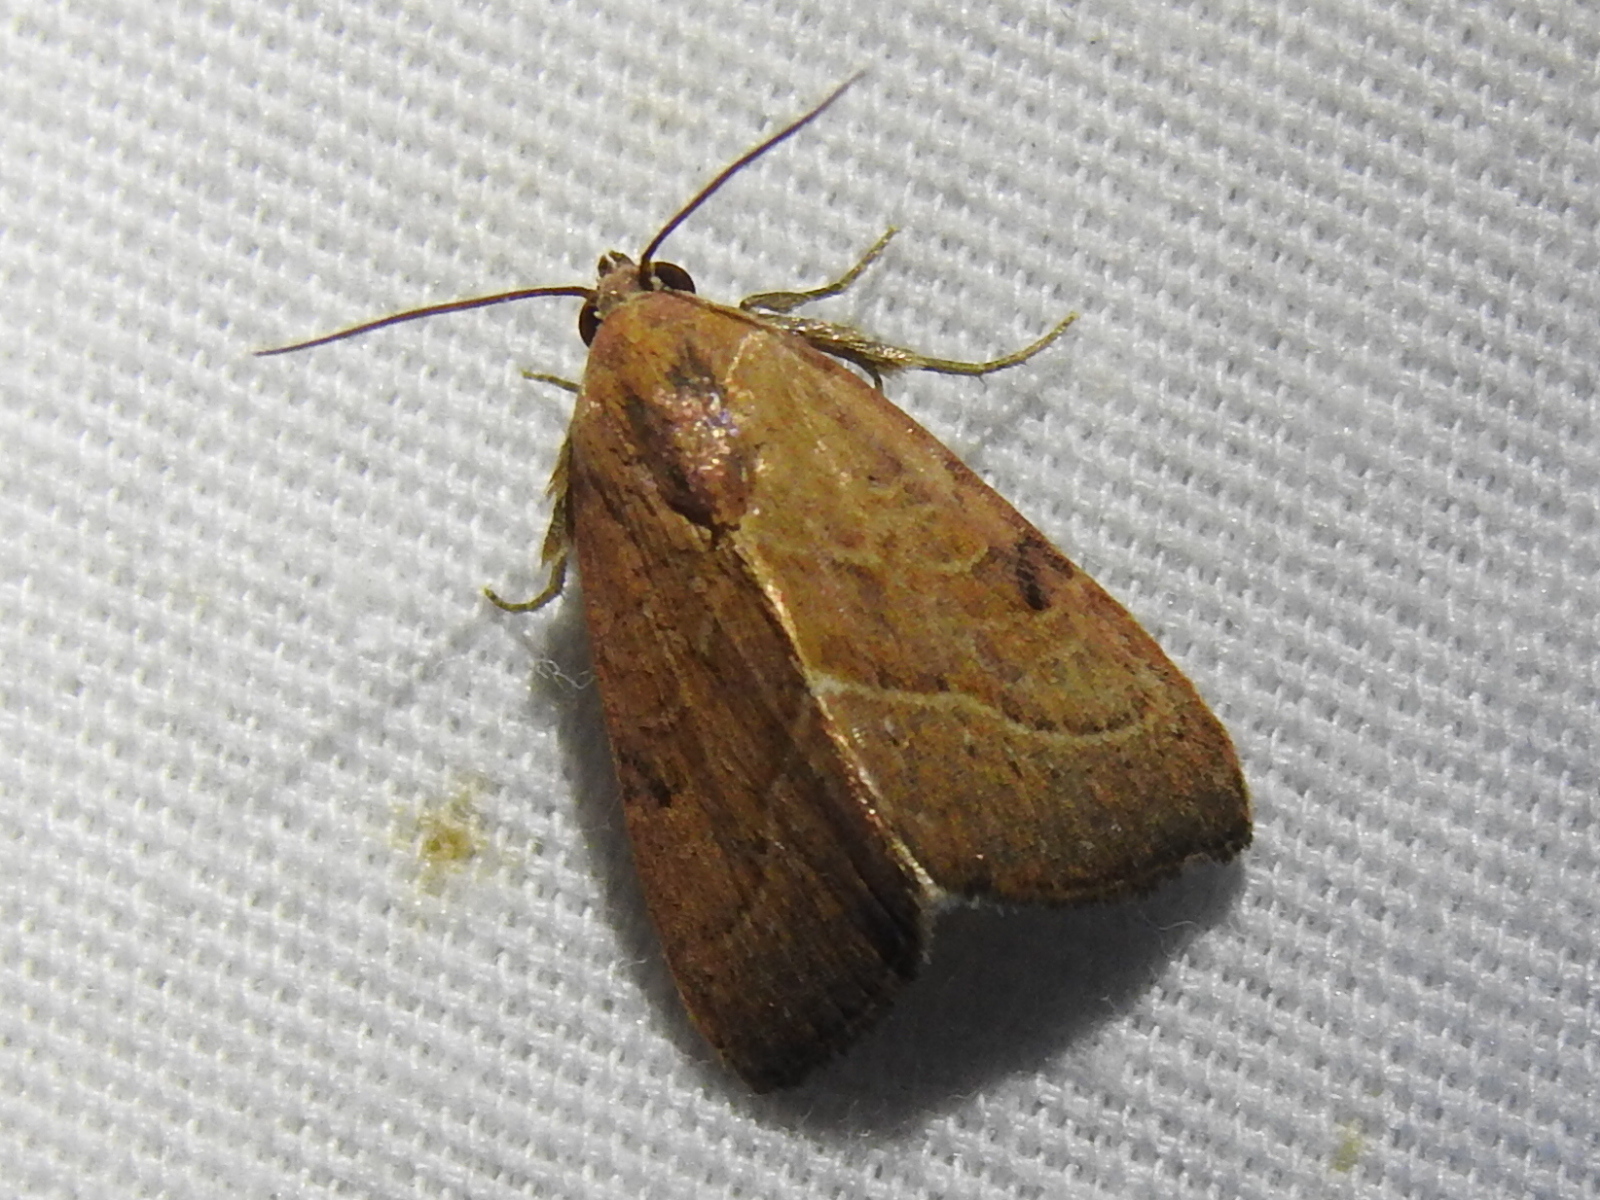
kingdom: Animalia
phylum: Arthropoda
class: Insecta
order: Lepidoptera
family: Noctuidae
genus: Galgula
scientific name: Galgula partita
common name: Wedgeling
